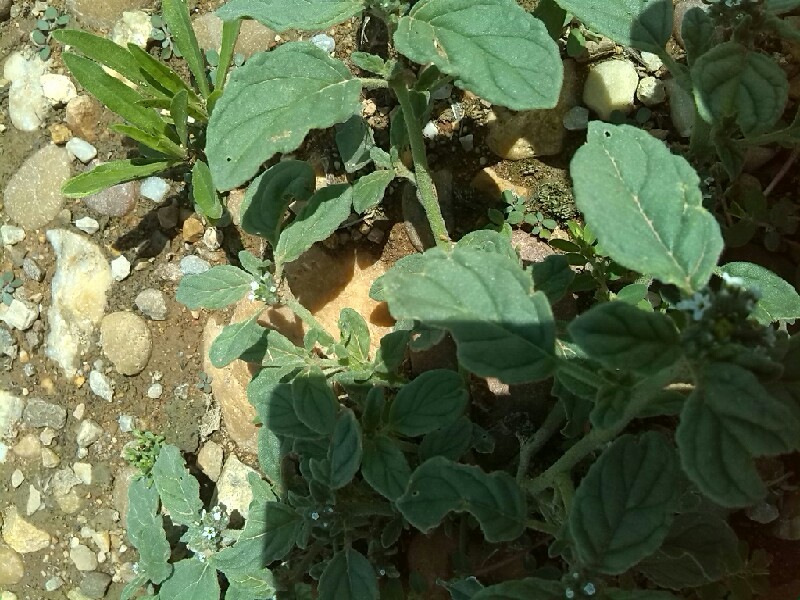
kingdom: Plantae
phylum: Tracheophyta
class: Magnoliopsida
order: Boraginales
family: Heliotropiaceae
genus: Heliotropium
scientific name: Heliotropium europaeum
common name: European heliotrope
